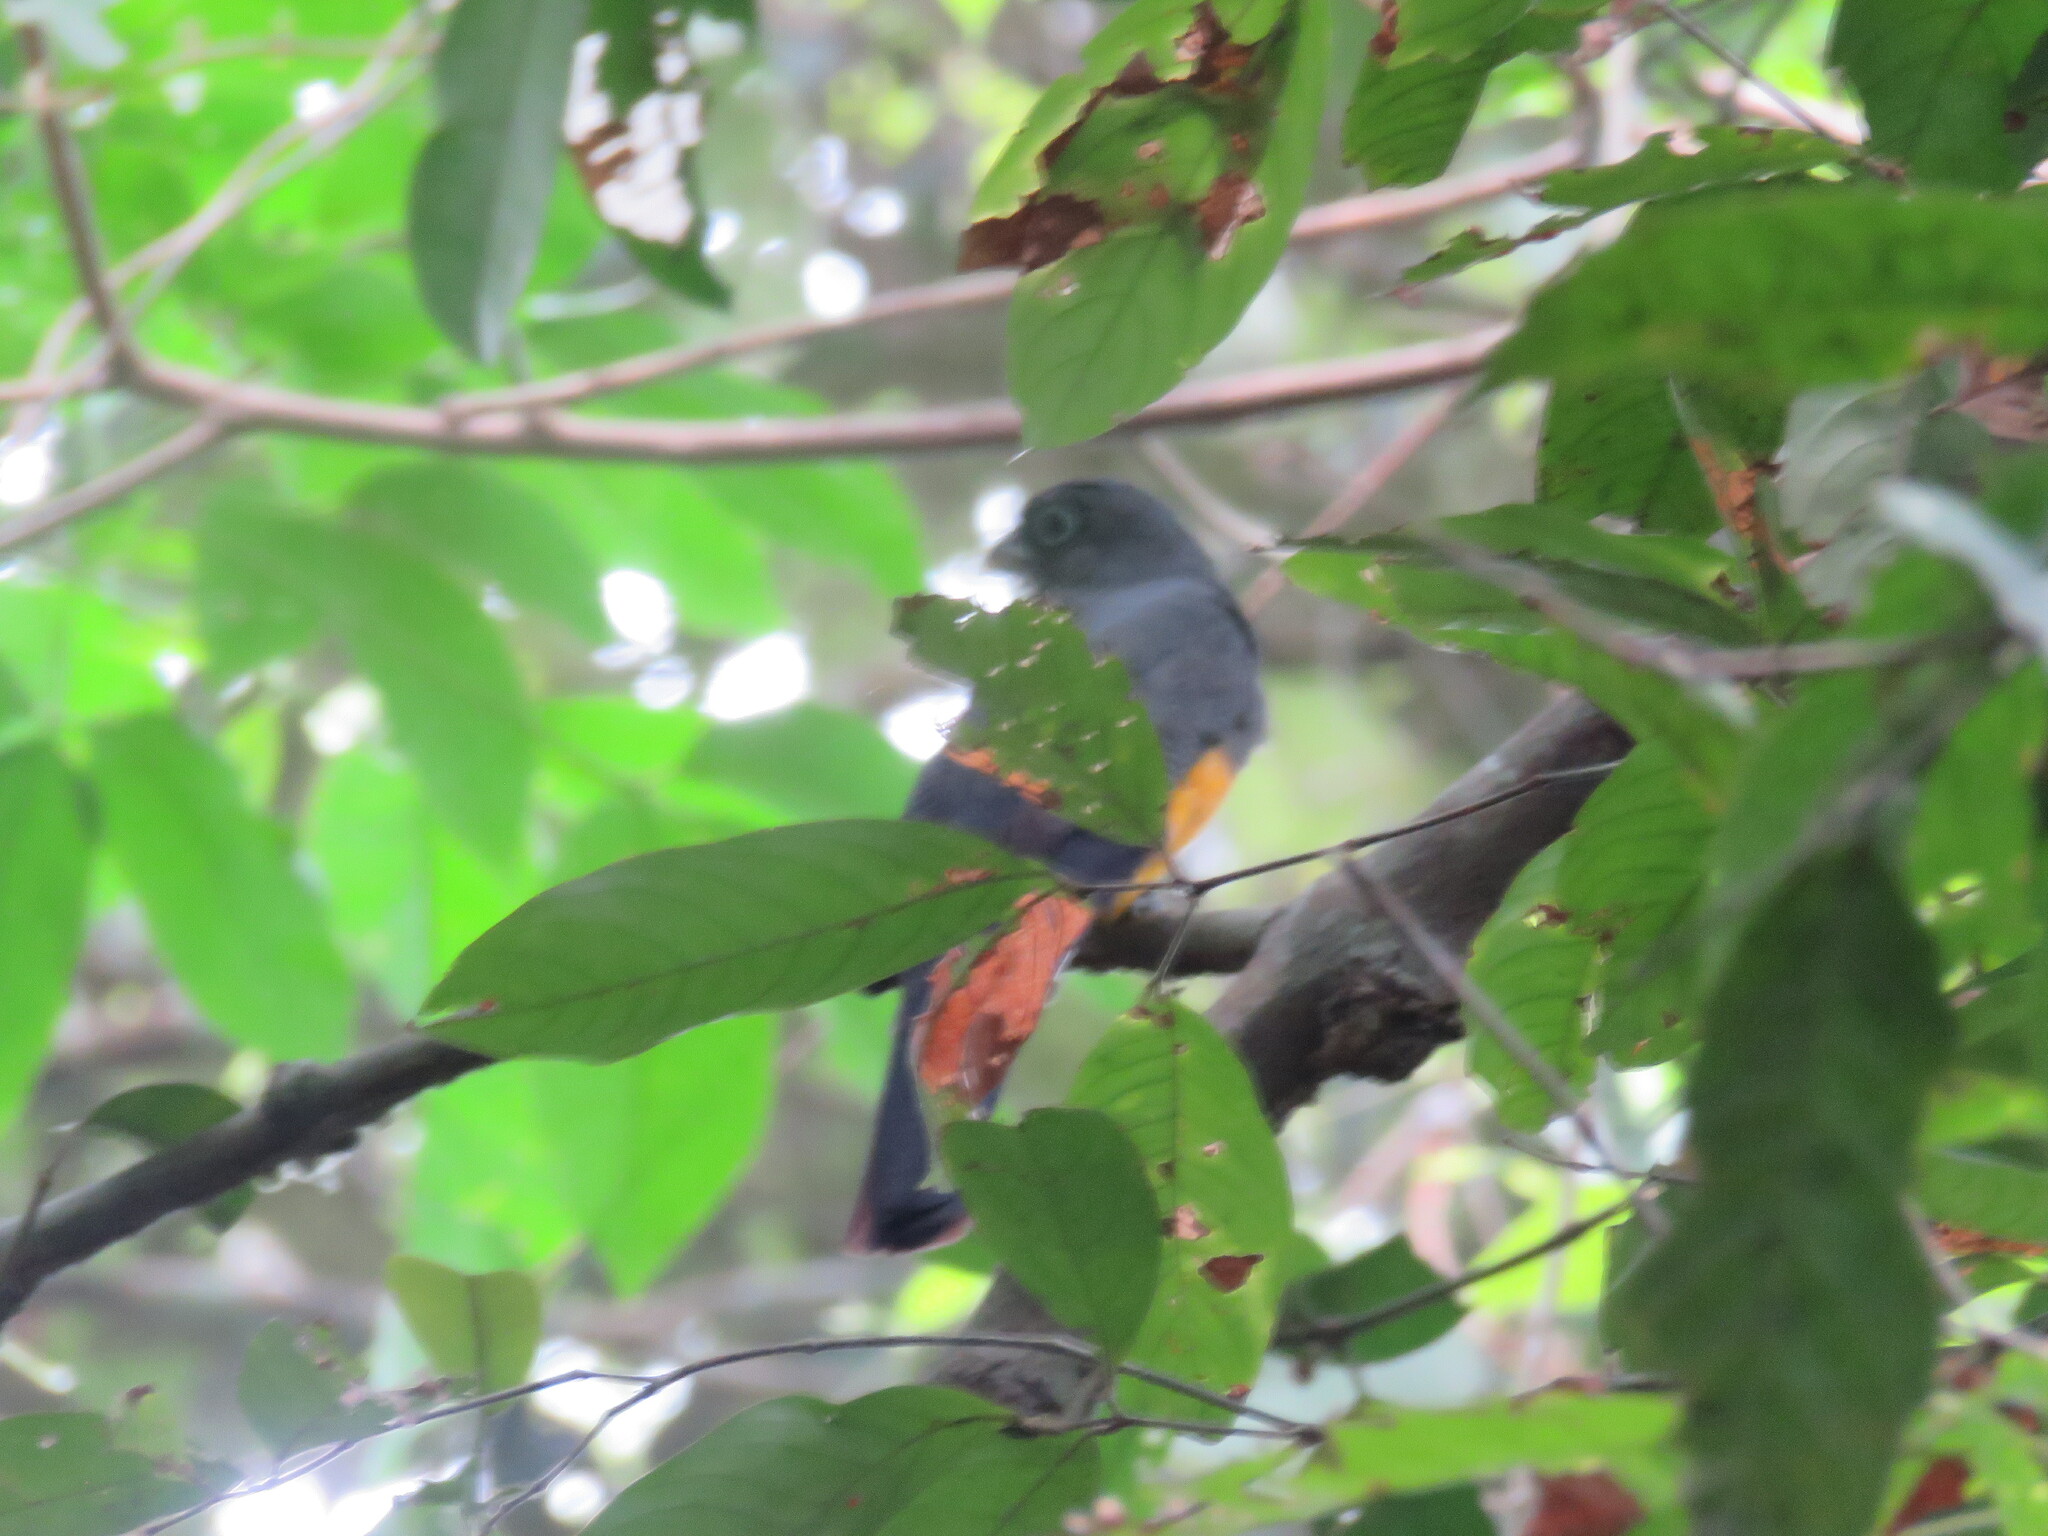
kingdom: Animalia
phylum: Chordata
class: Aves
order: Trogoniformes
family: Trogonidae
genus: Trogon
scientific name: Trogon viridis
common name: Green-backed trogon
